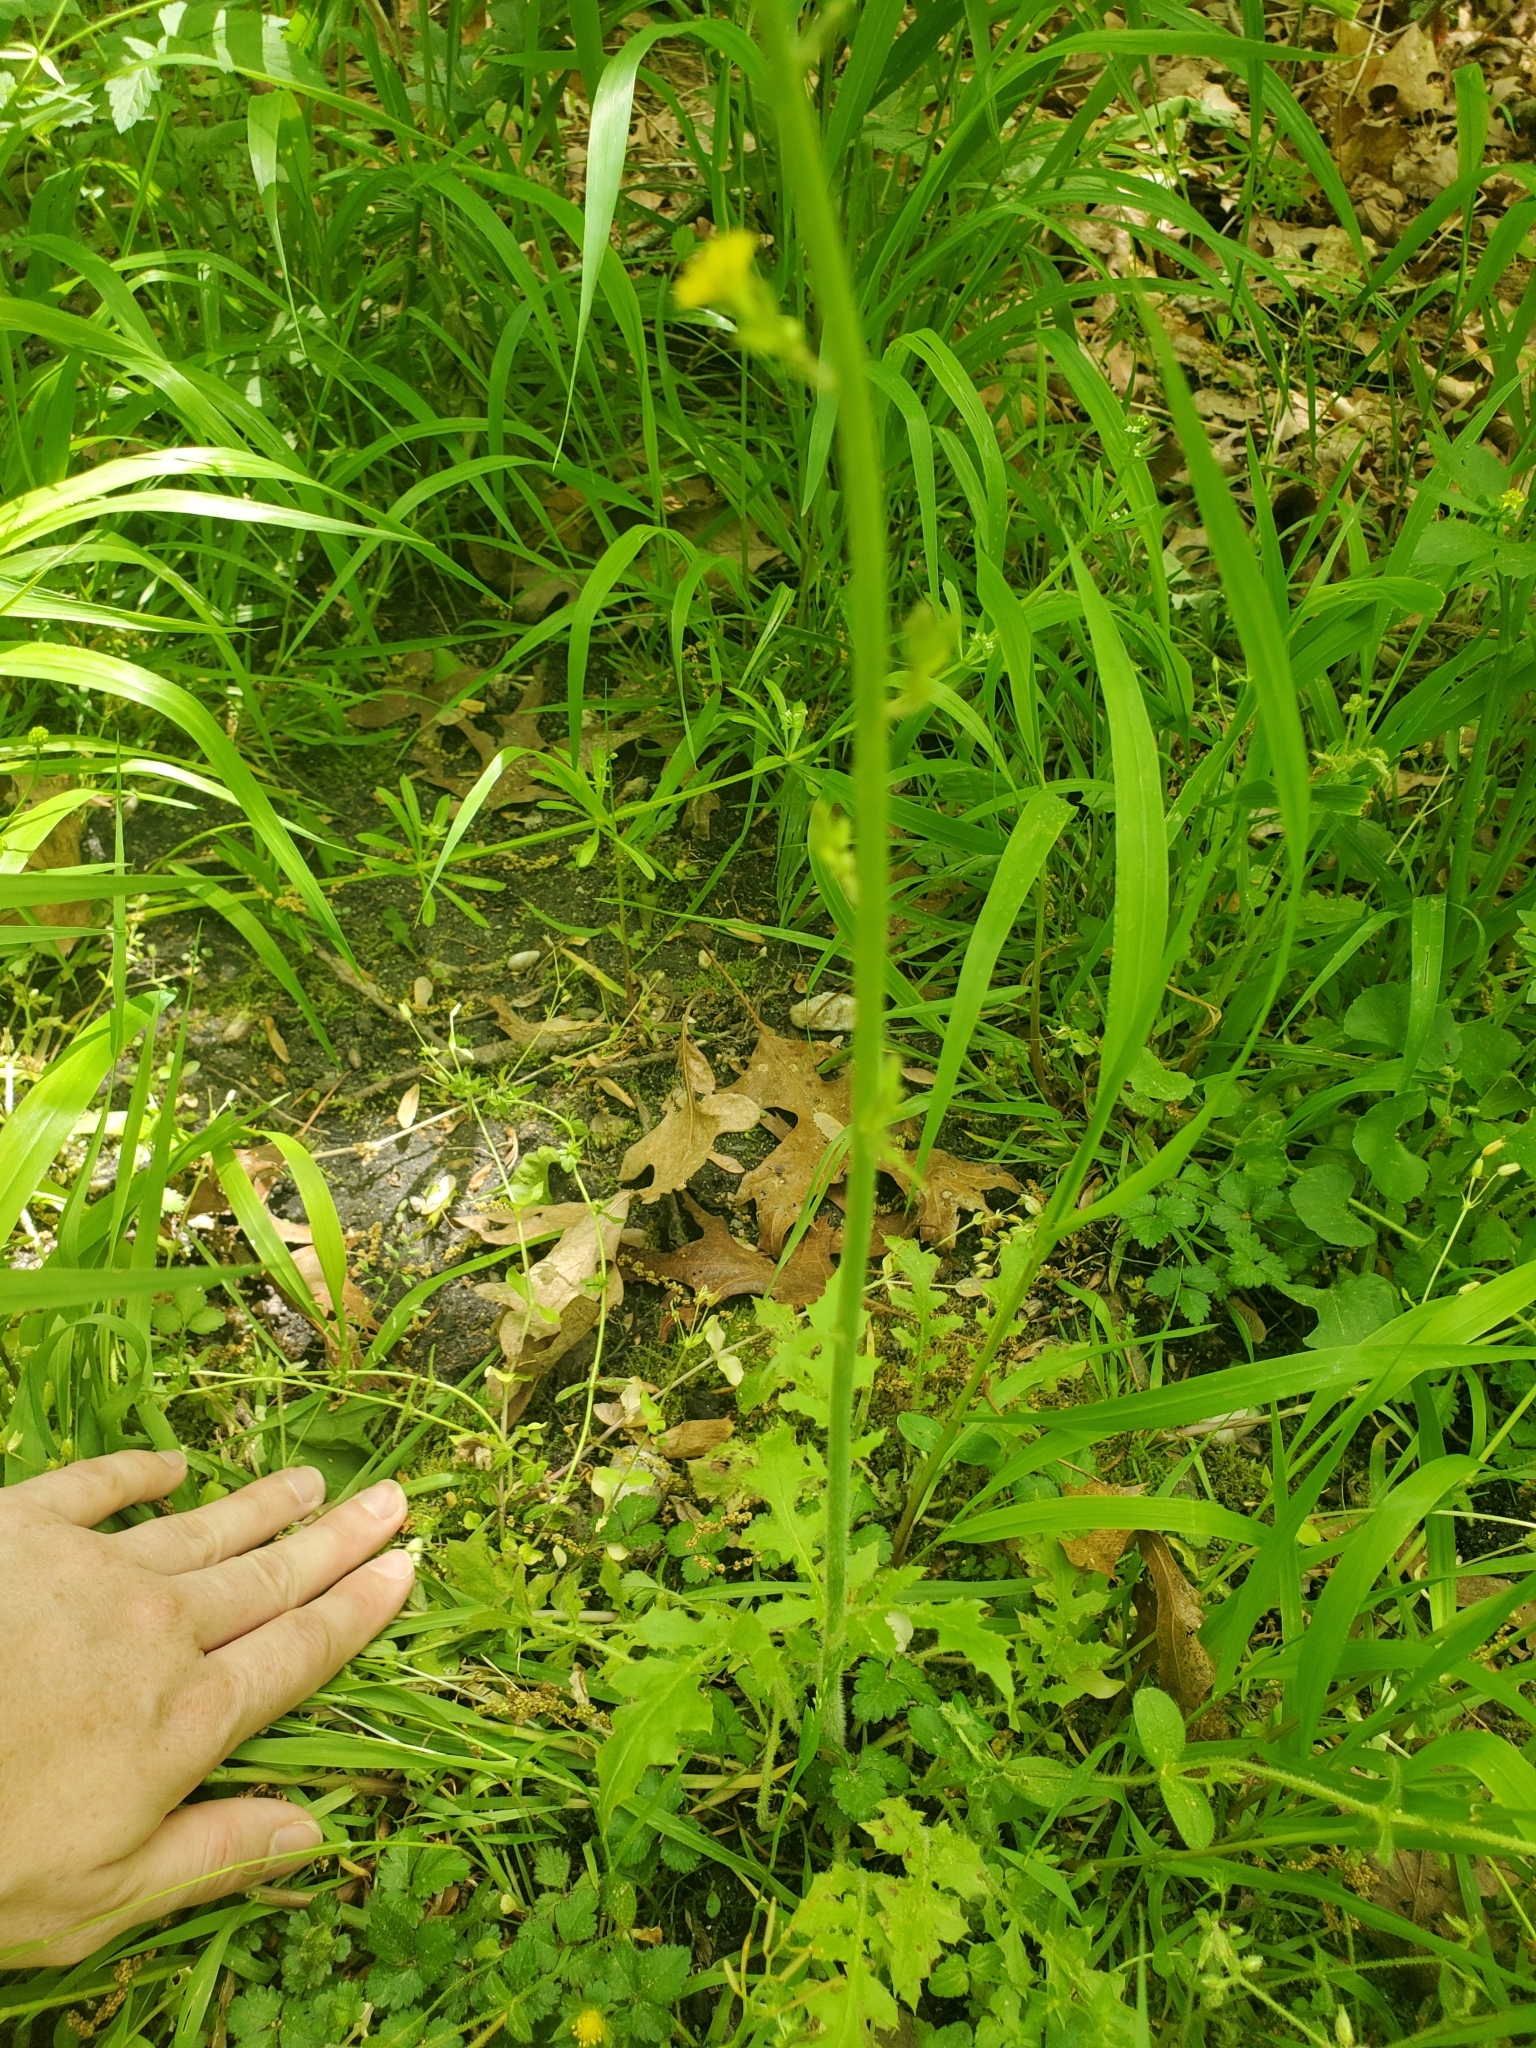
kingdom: Plantae
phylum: Tracheophyta
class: Magnoliopsida
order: Asterales
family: Asteraceae
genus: Youngia
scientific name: Youngia japonica
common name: Oriental false hawksbeard
